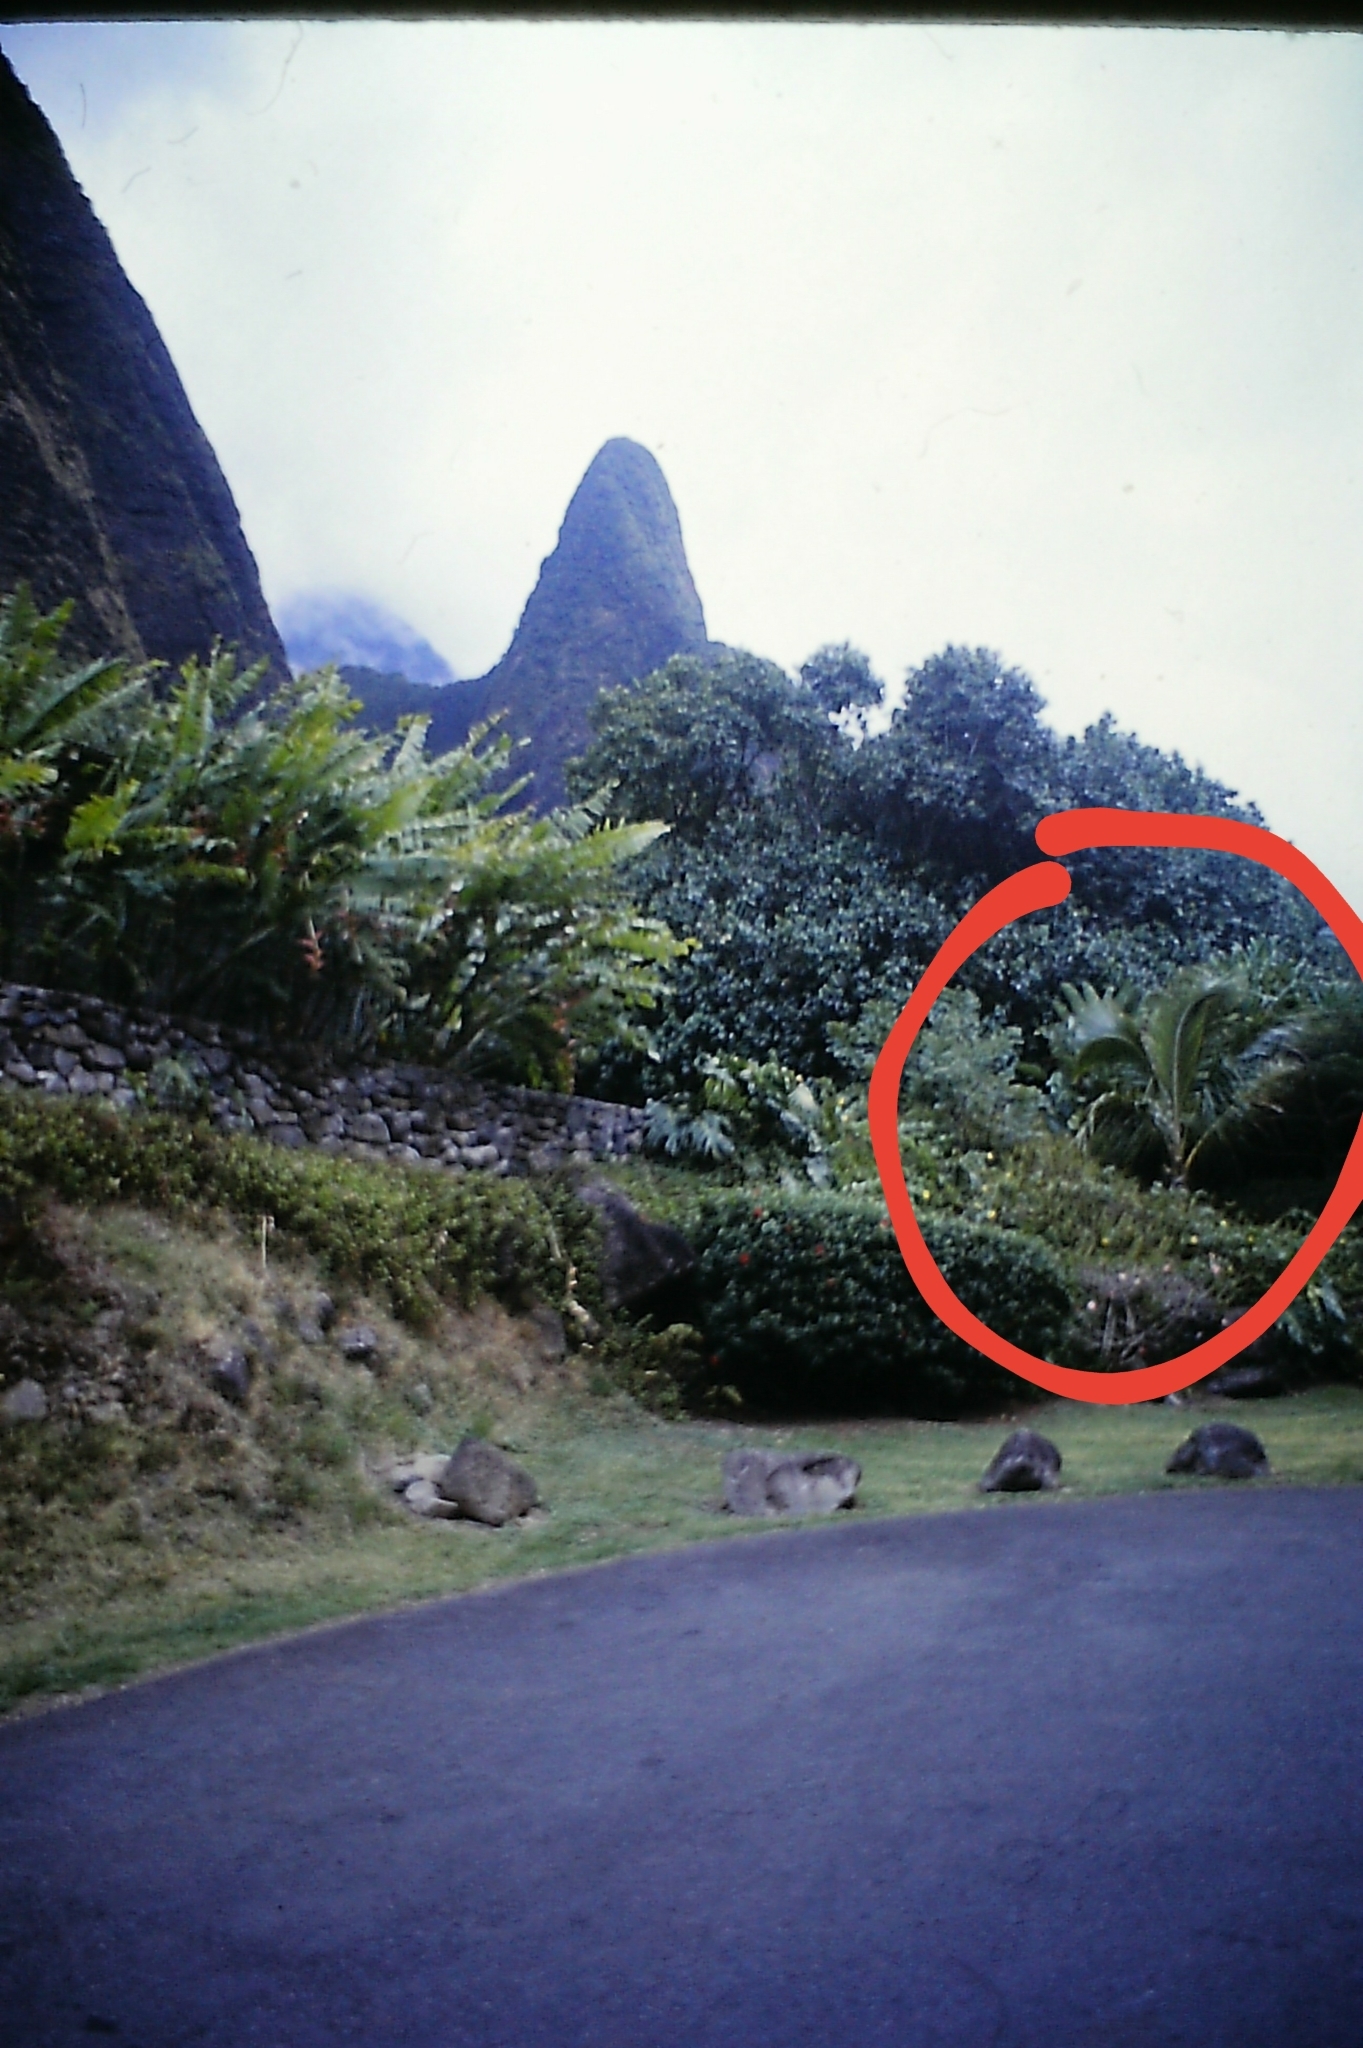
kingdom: Plantae
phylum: Tracheophyta
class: Liliopsida
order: Arecales
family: Arecaceae
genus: Cocos
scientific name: Cocos nucifera
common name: Coconut palm
